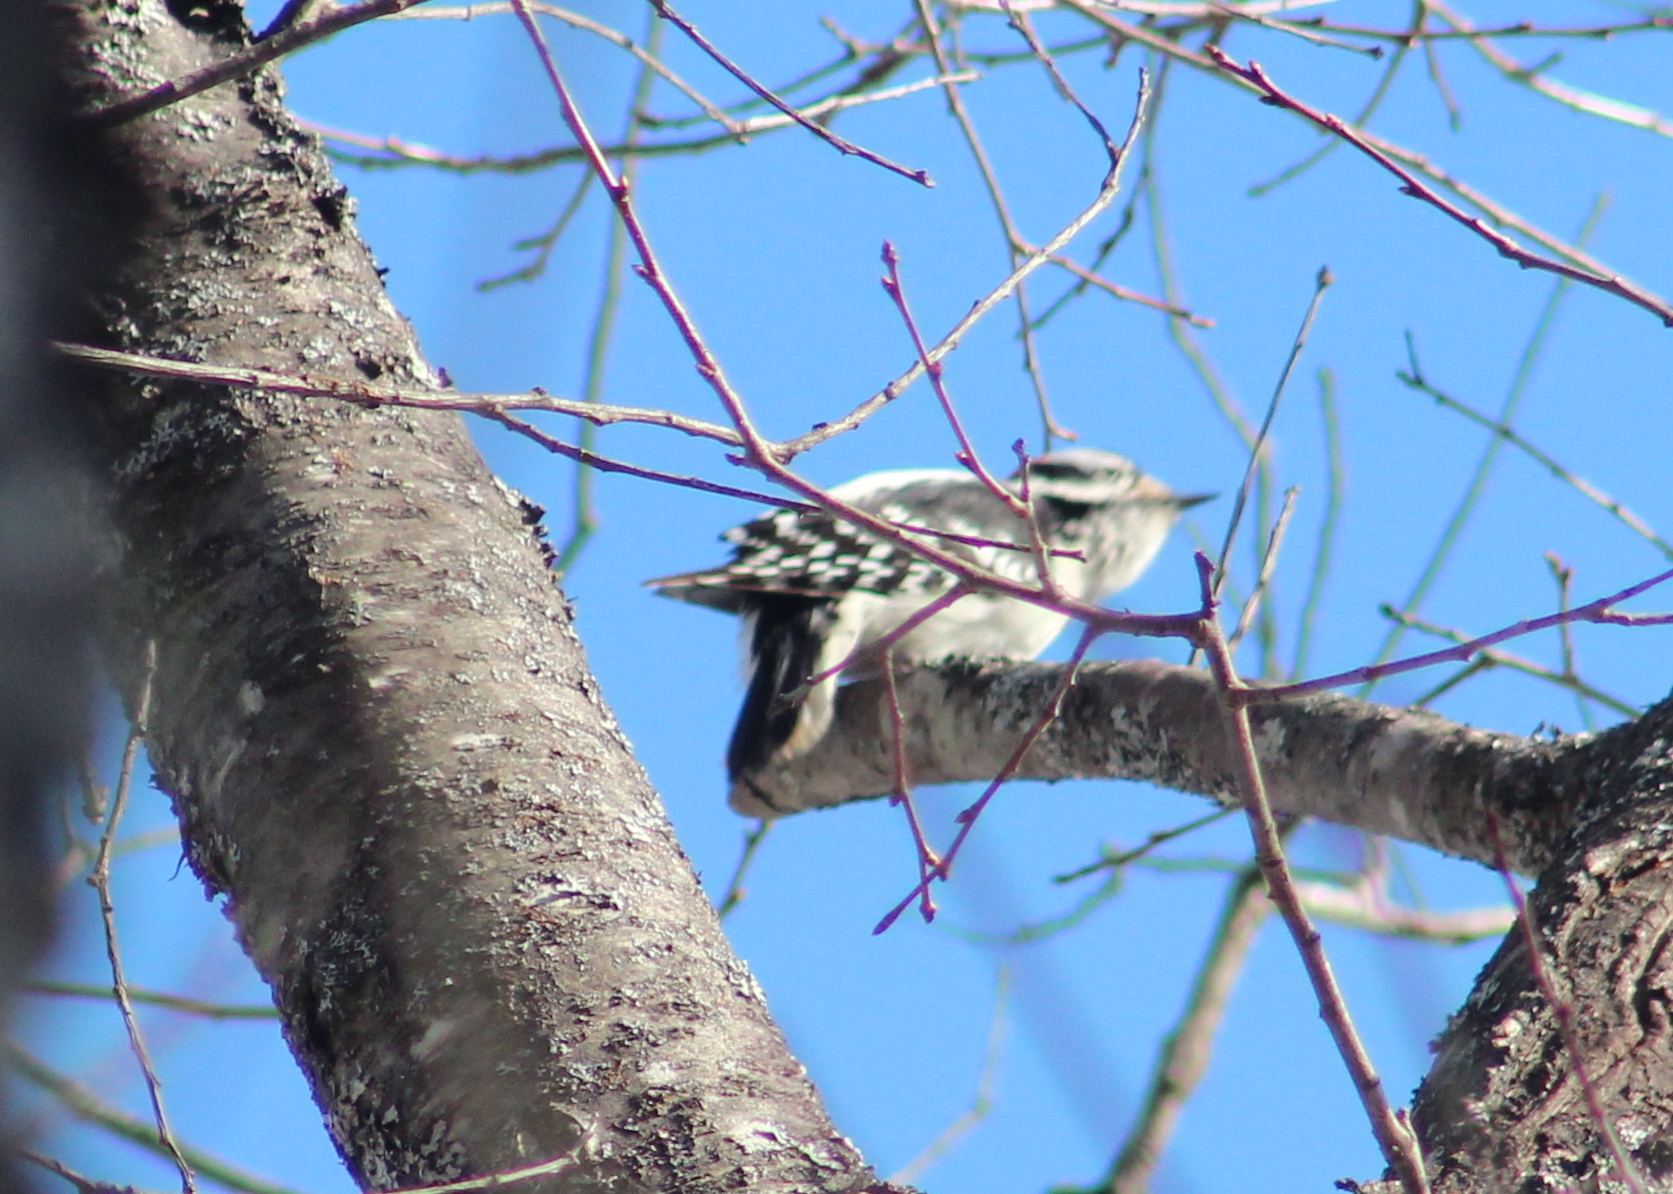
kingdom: Animalia
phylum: Chordata
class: Aves
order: Piciformes
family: Picidae
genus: Dryobates
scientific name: Dryobates pubescens
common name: Downy woodpecker
